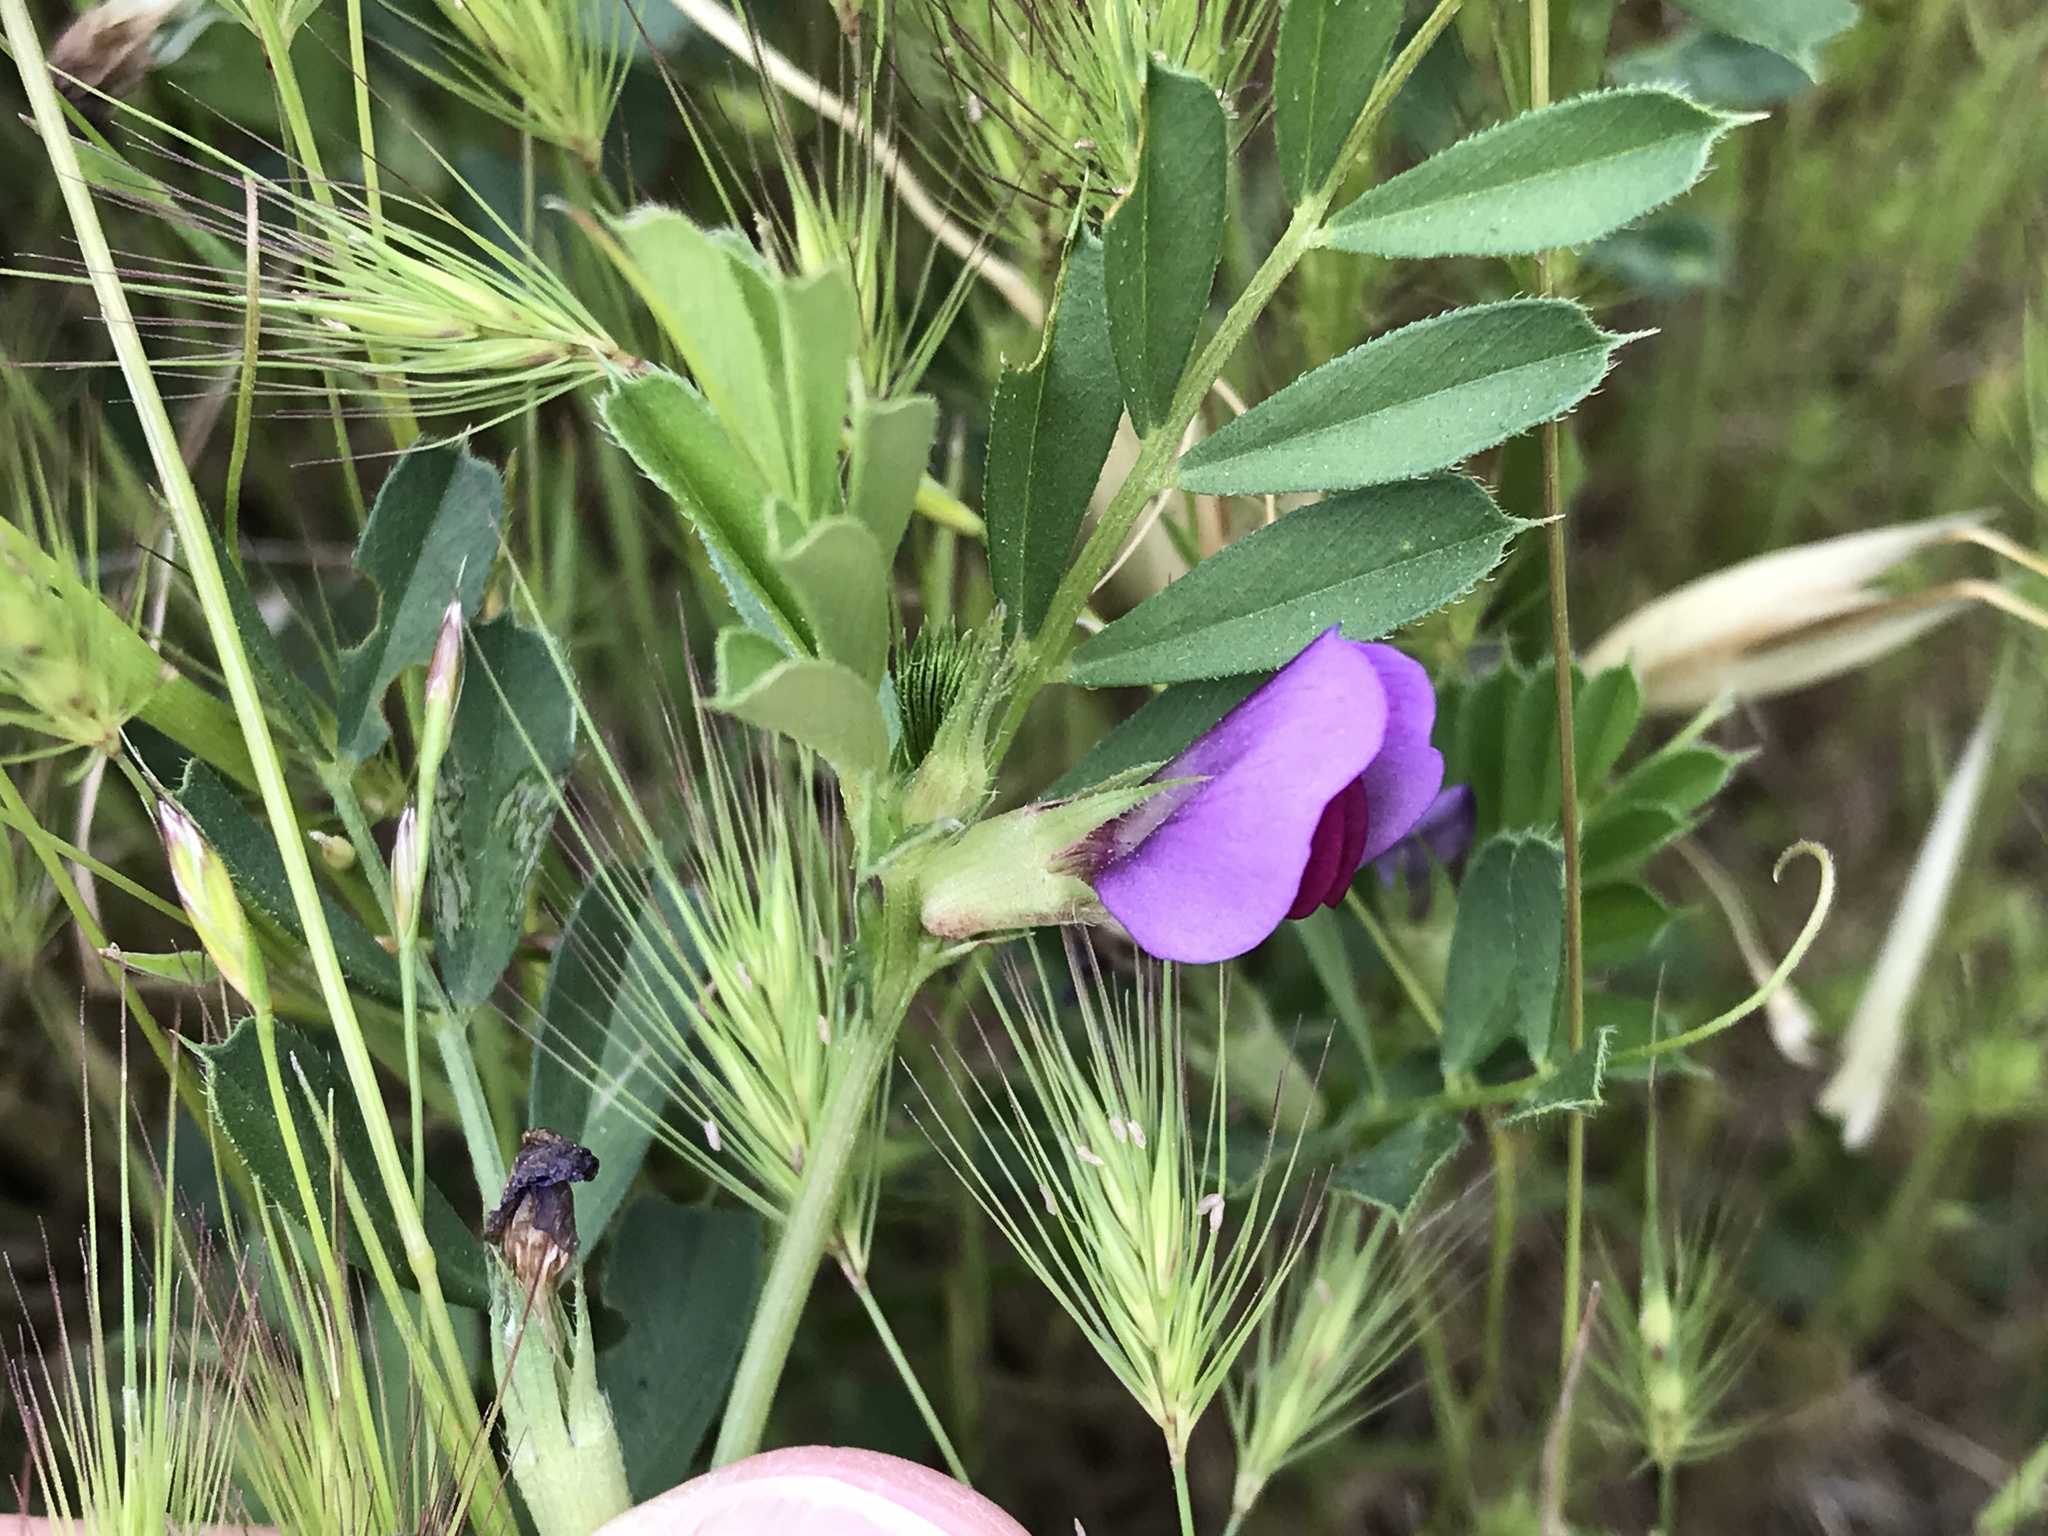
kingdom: Plantae
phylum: Tracheophyta
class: Magnoliopsida
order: Fabales
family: Fabaceae
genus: Vicia
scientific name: Vicia sativa
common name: Garden vetch
